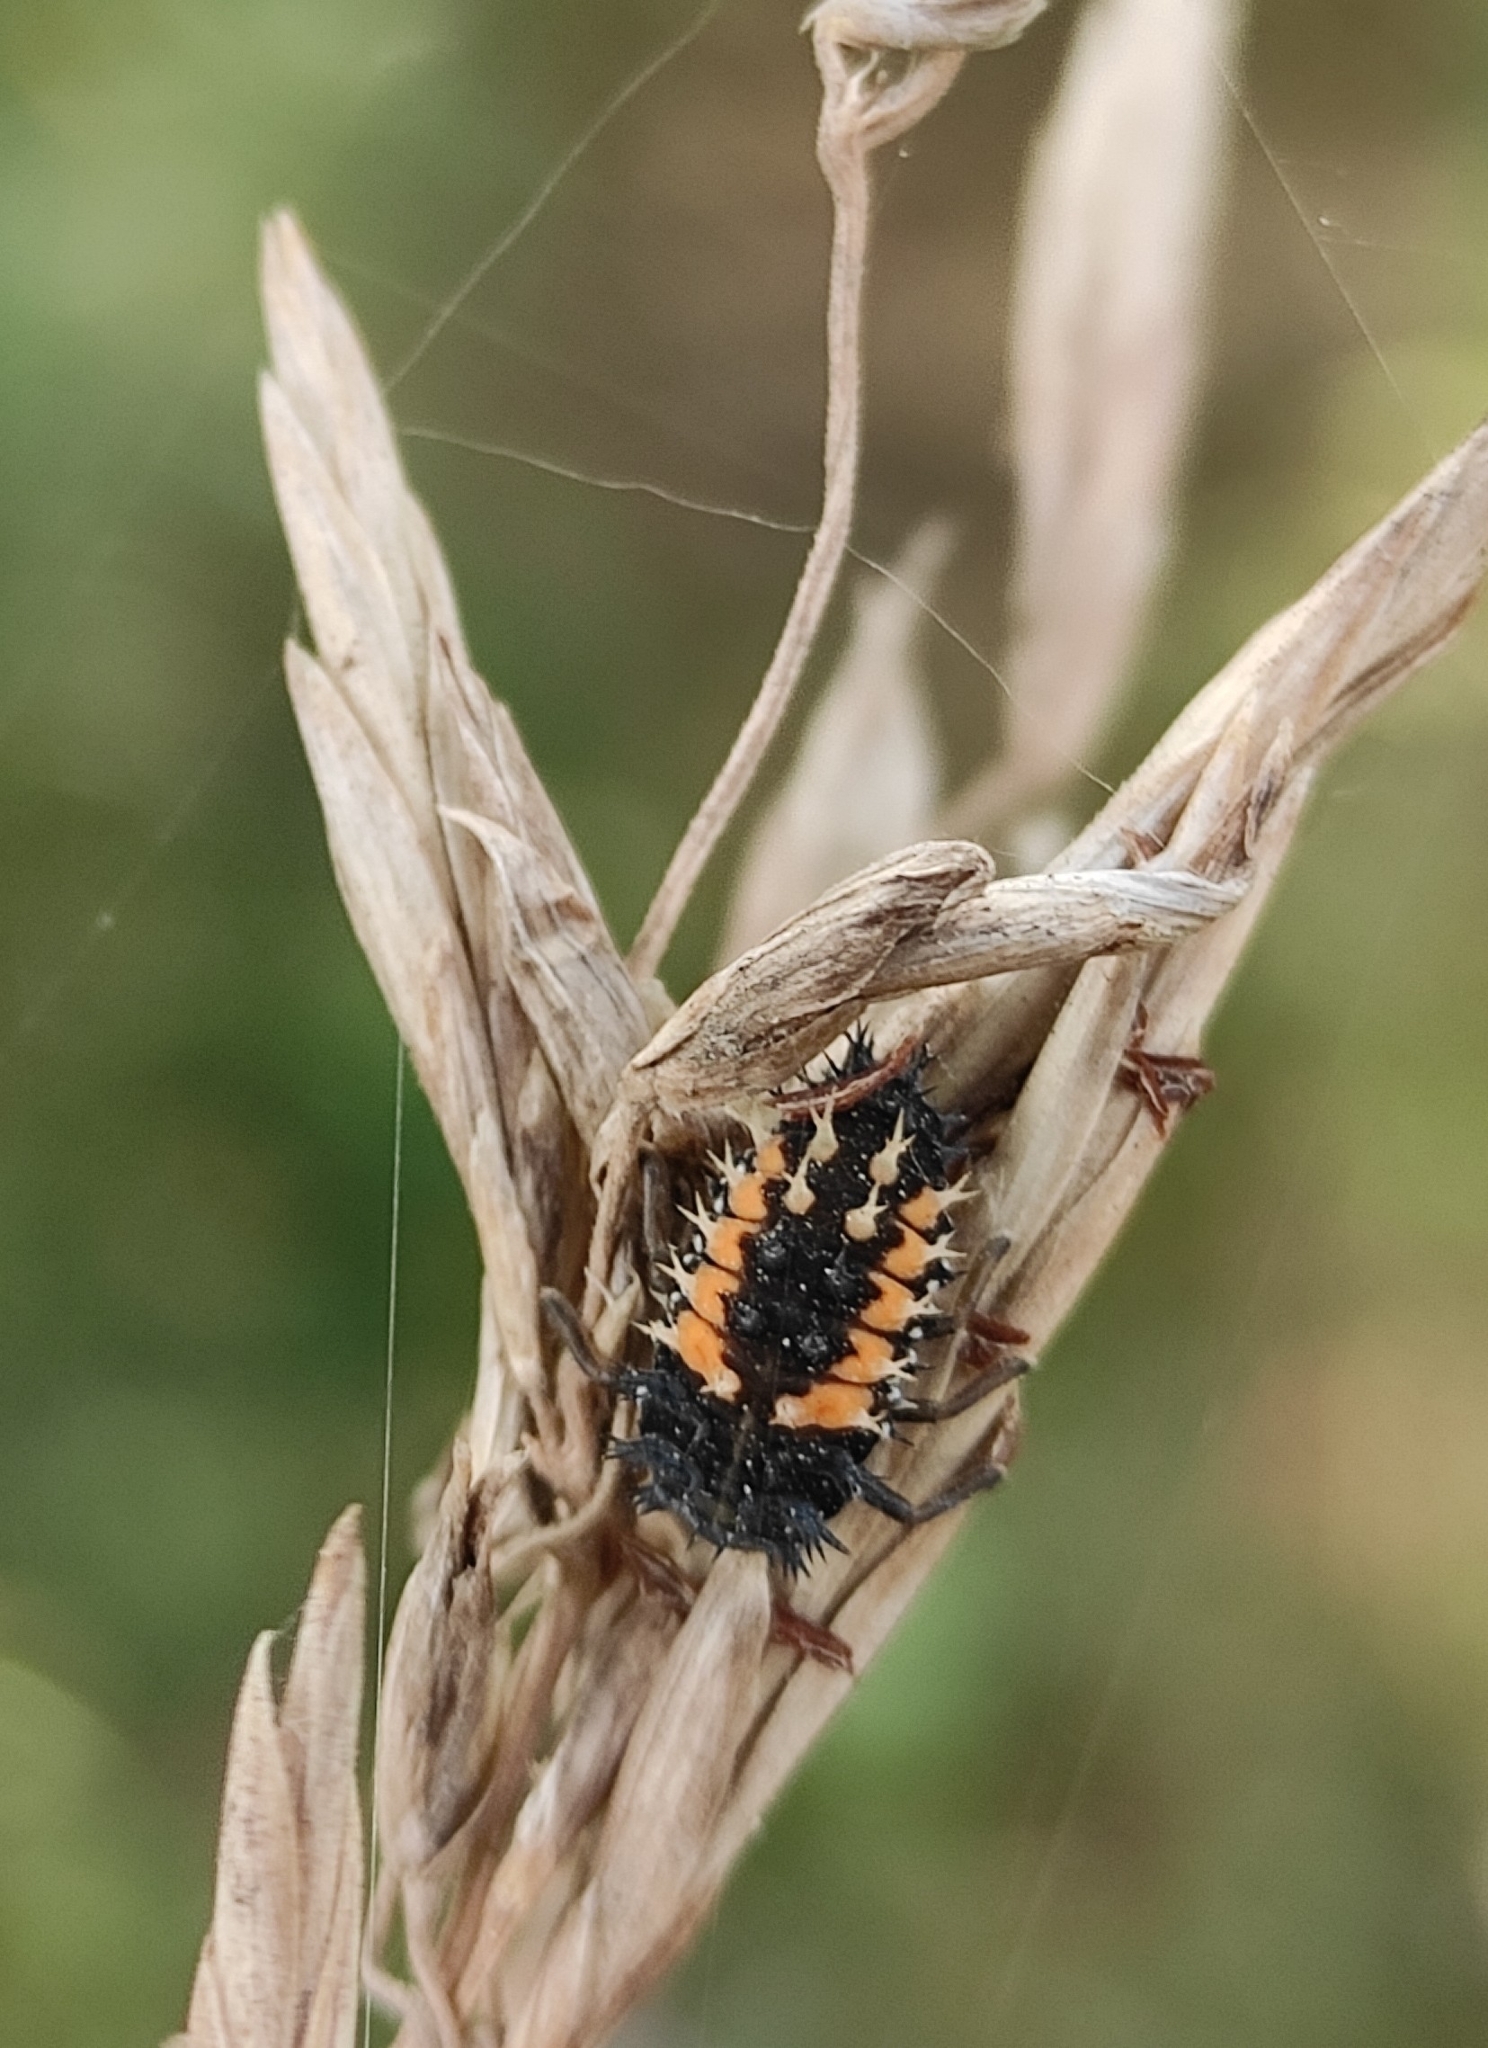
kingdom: Animalia
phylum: Arthropoda
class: Insecta
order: Coleoptera
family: Coccinellidae
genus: Harmonia
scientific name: Harmonia axyridis
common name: Harlequin ladybird
